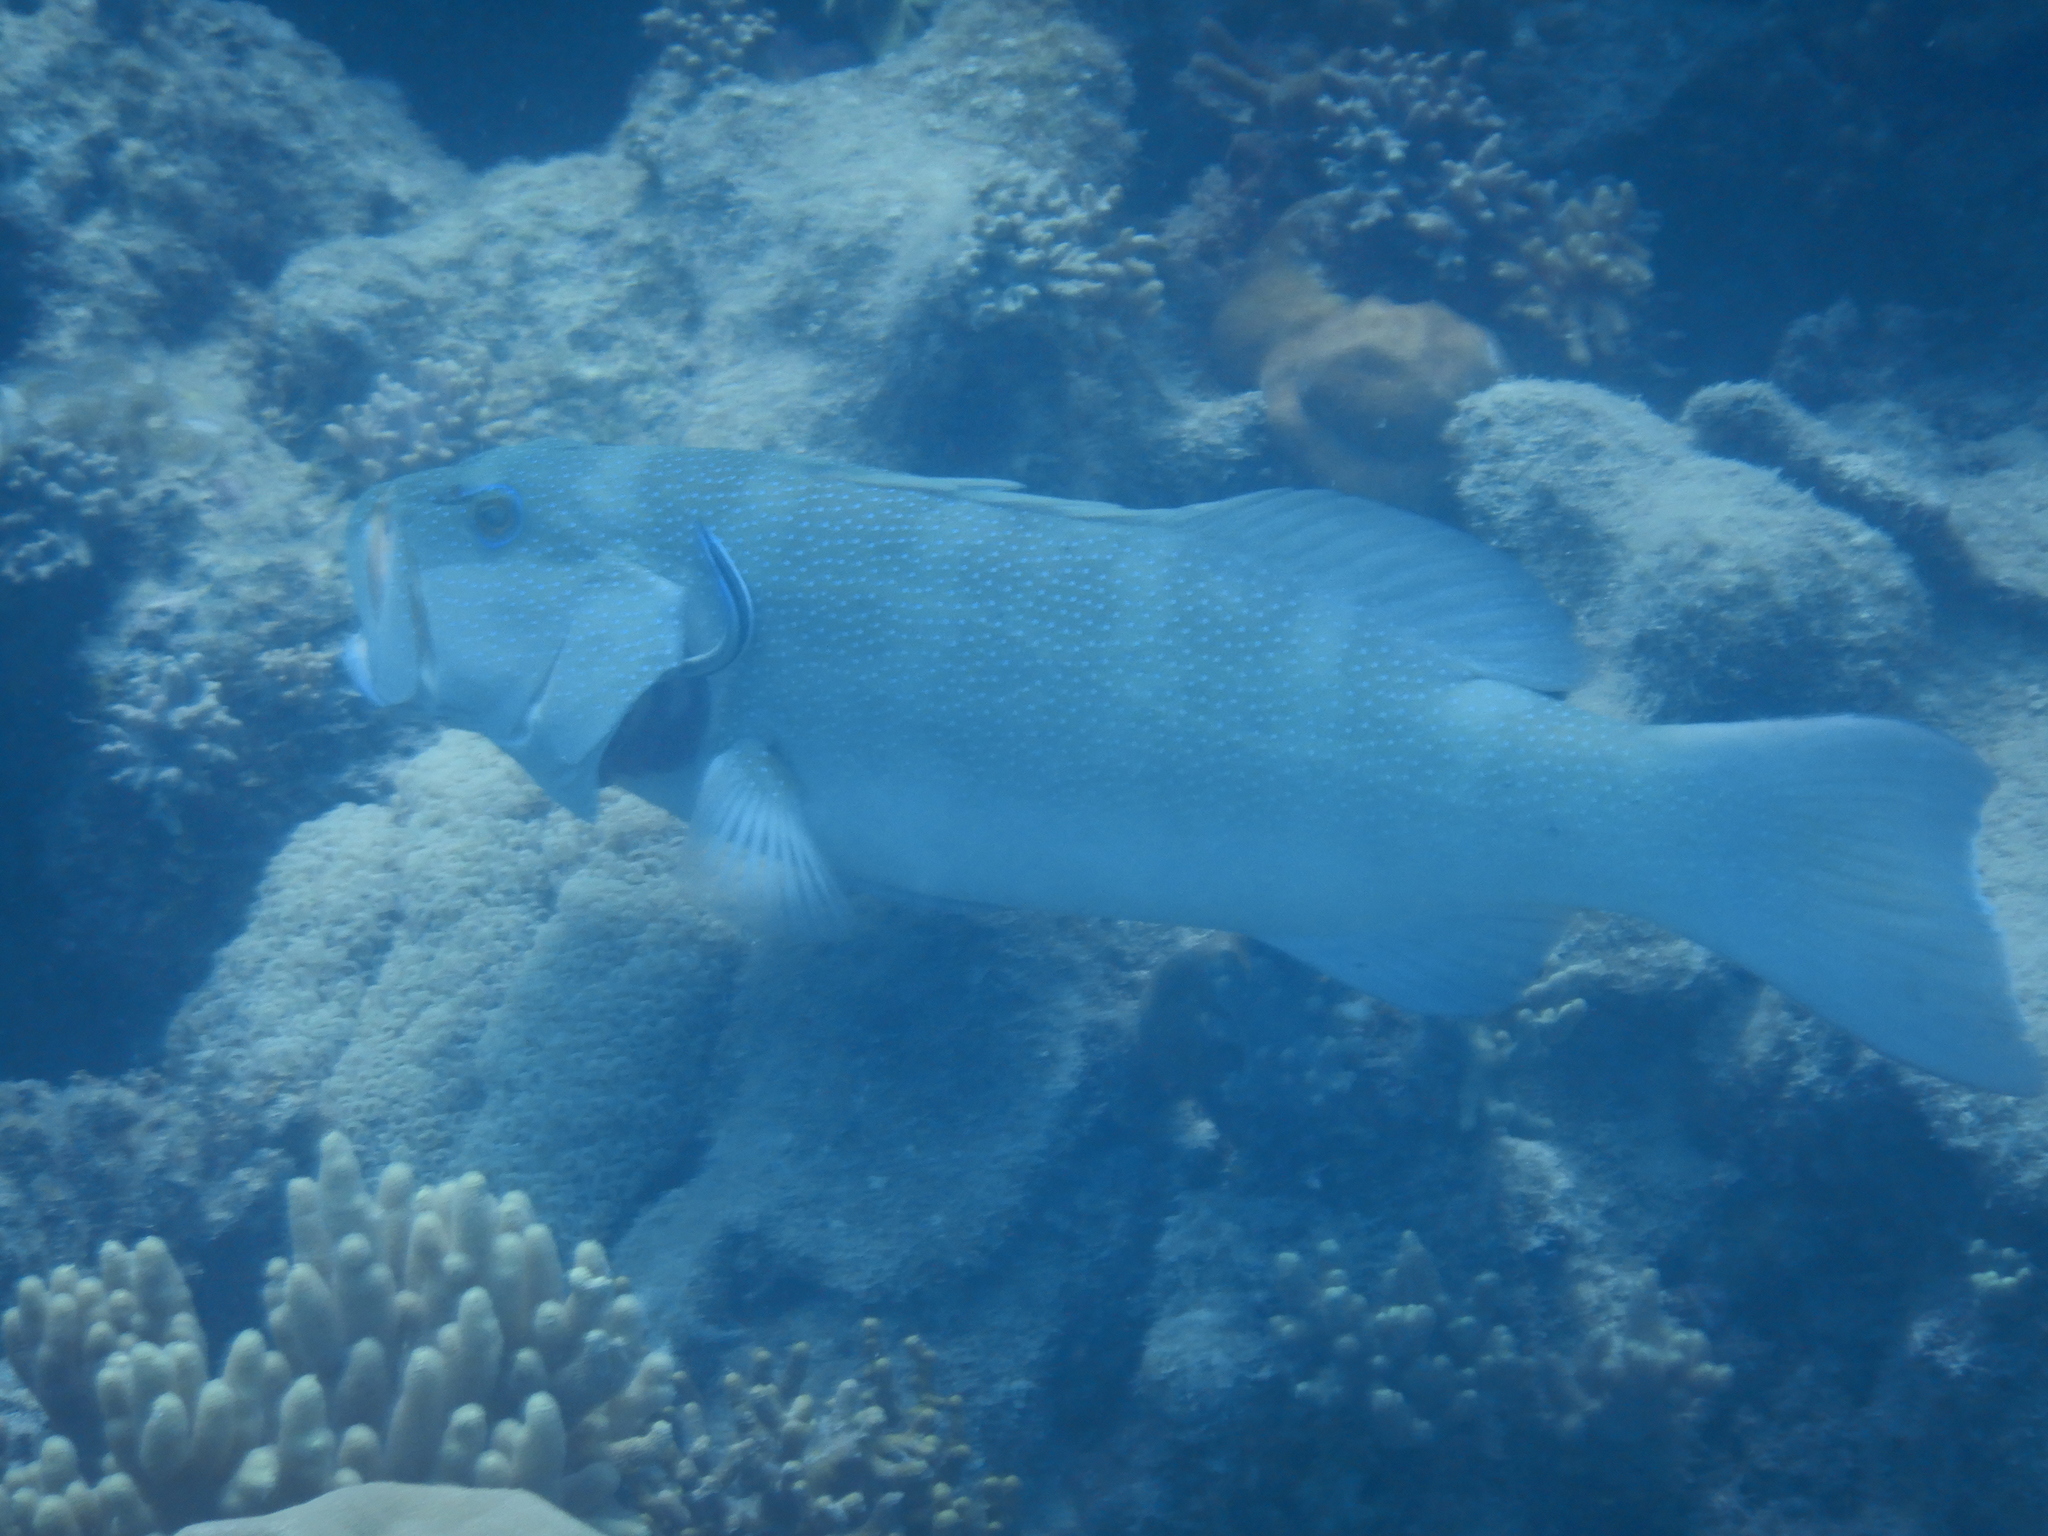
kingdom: Animalia
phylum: Chordata
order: Perciformes
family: Serranidae
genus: Plectropomus
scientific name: Plectropomus leopardus
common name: Coral trout
